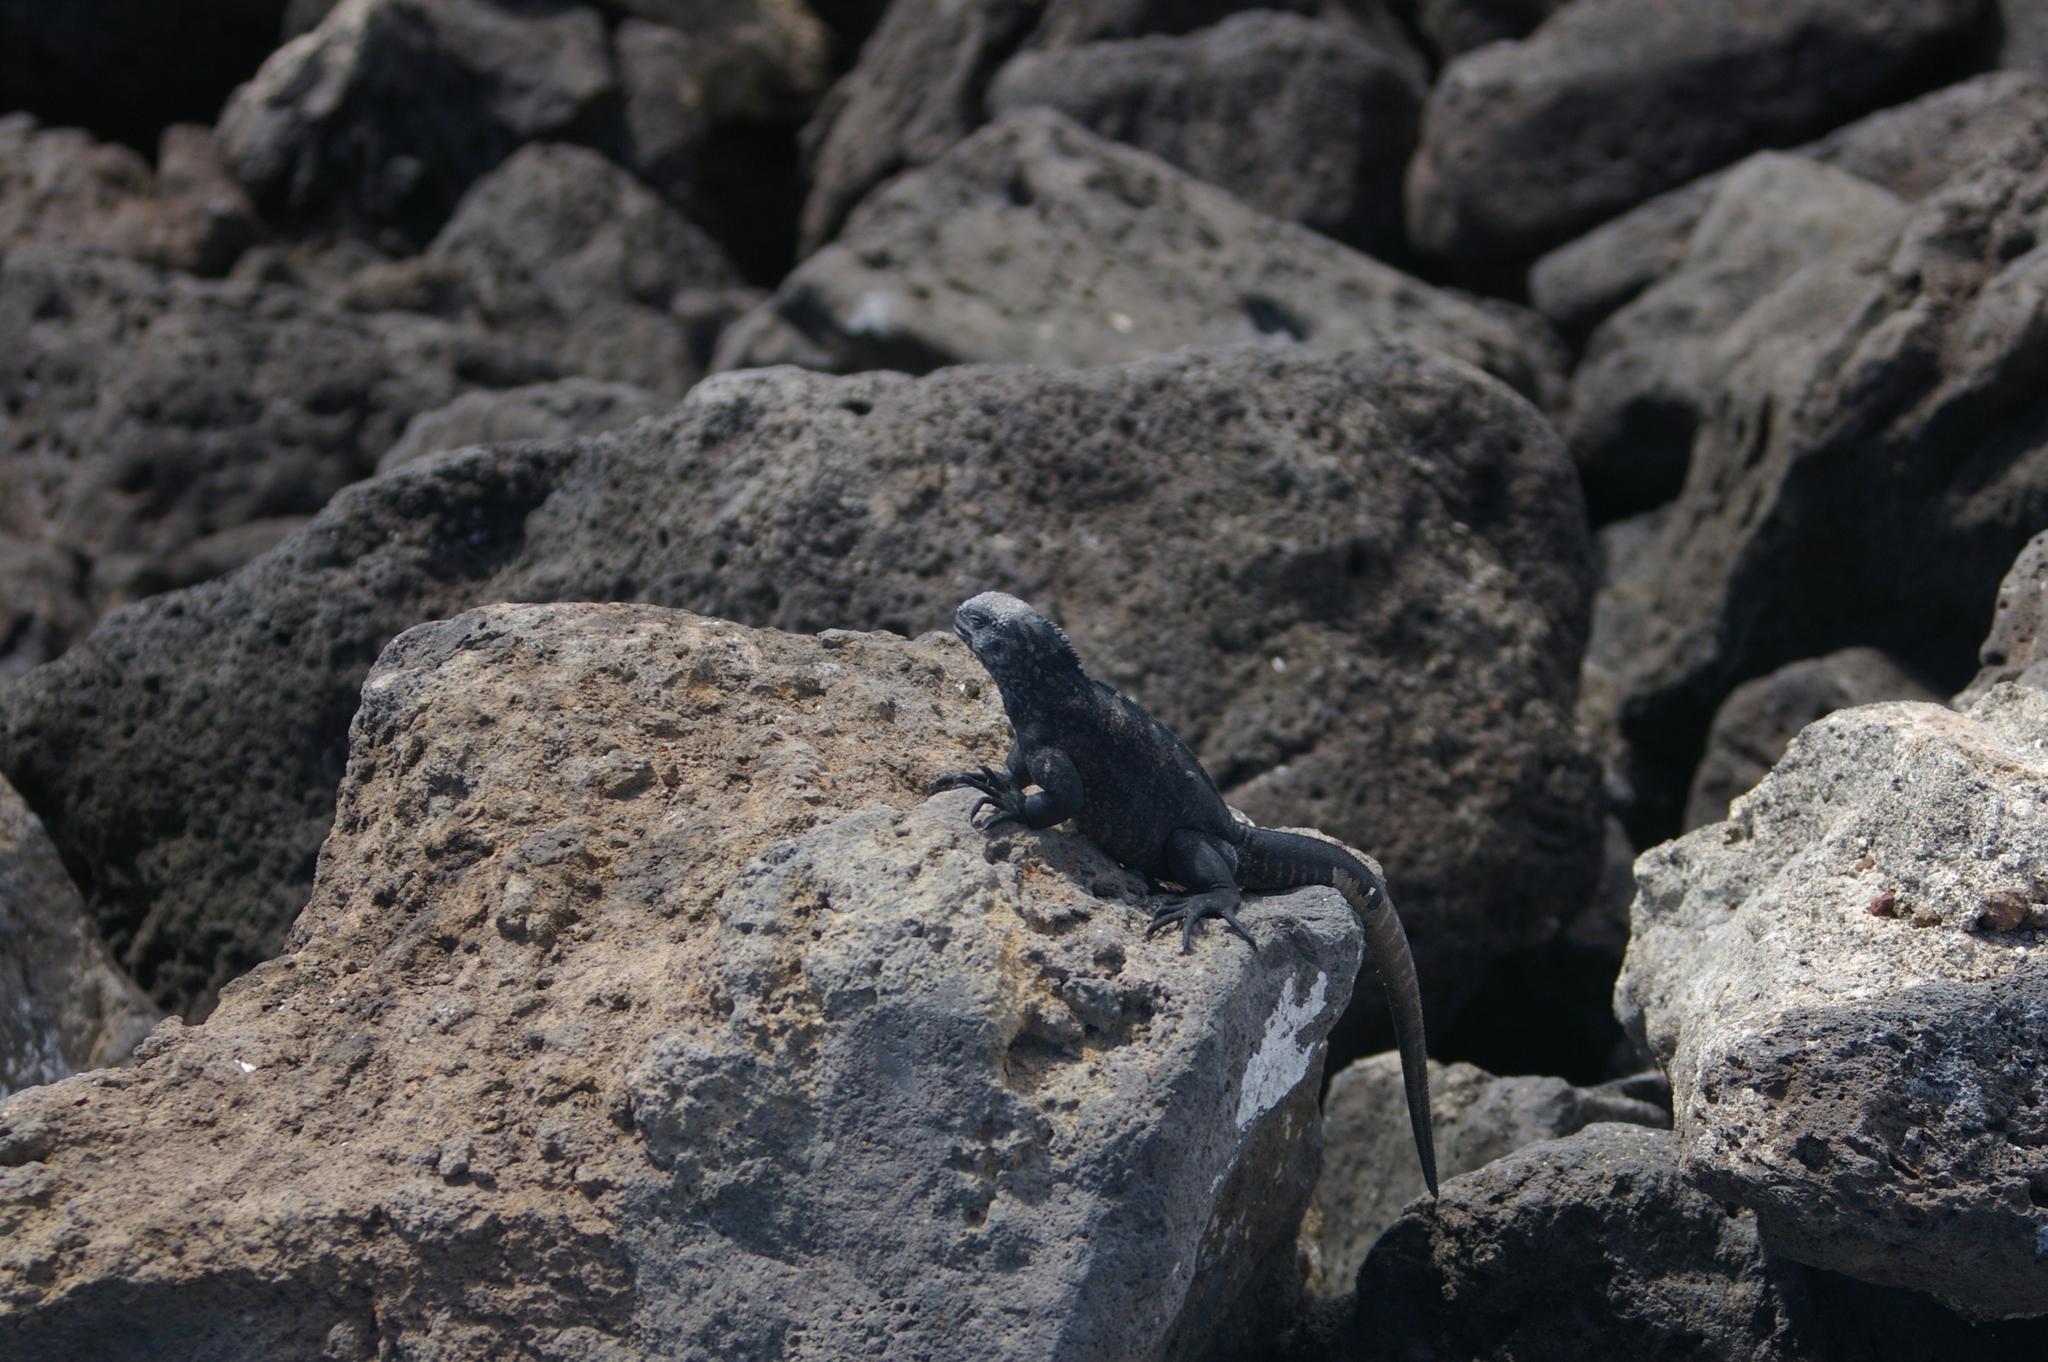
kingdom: Animalia
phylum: Chordata
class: Squamata
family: Iguanidae
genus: Amblyrhynchus
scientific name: Amblyrhynchus cristatus
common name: Marine iguana
